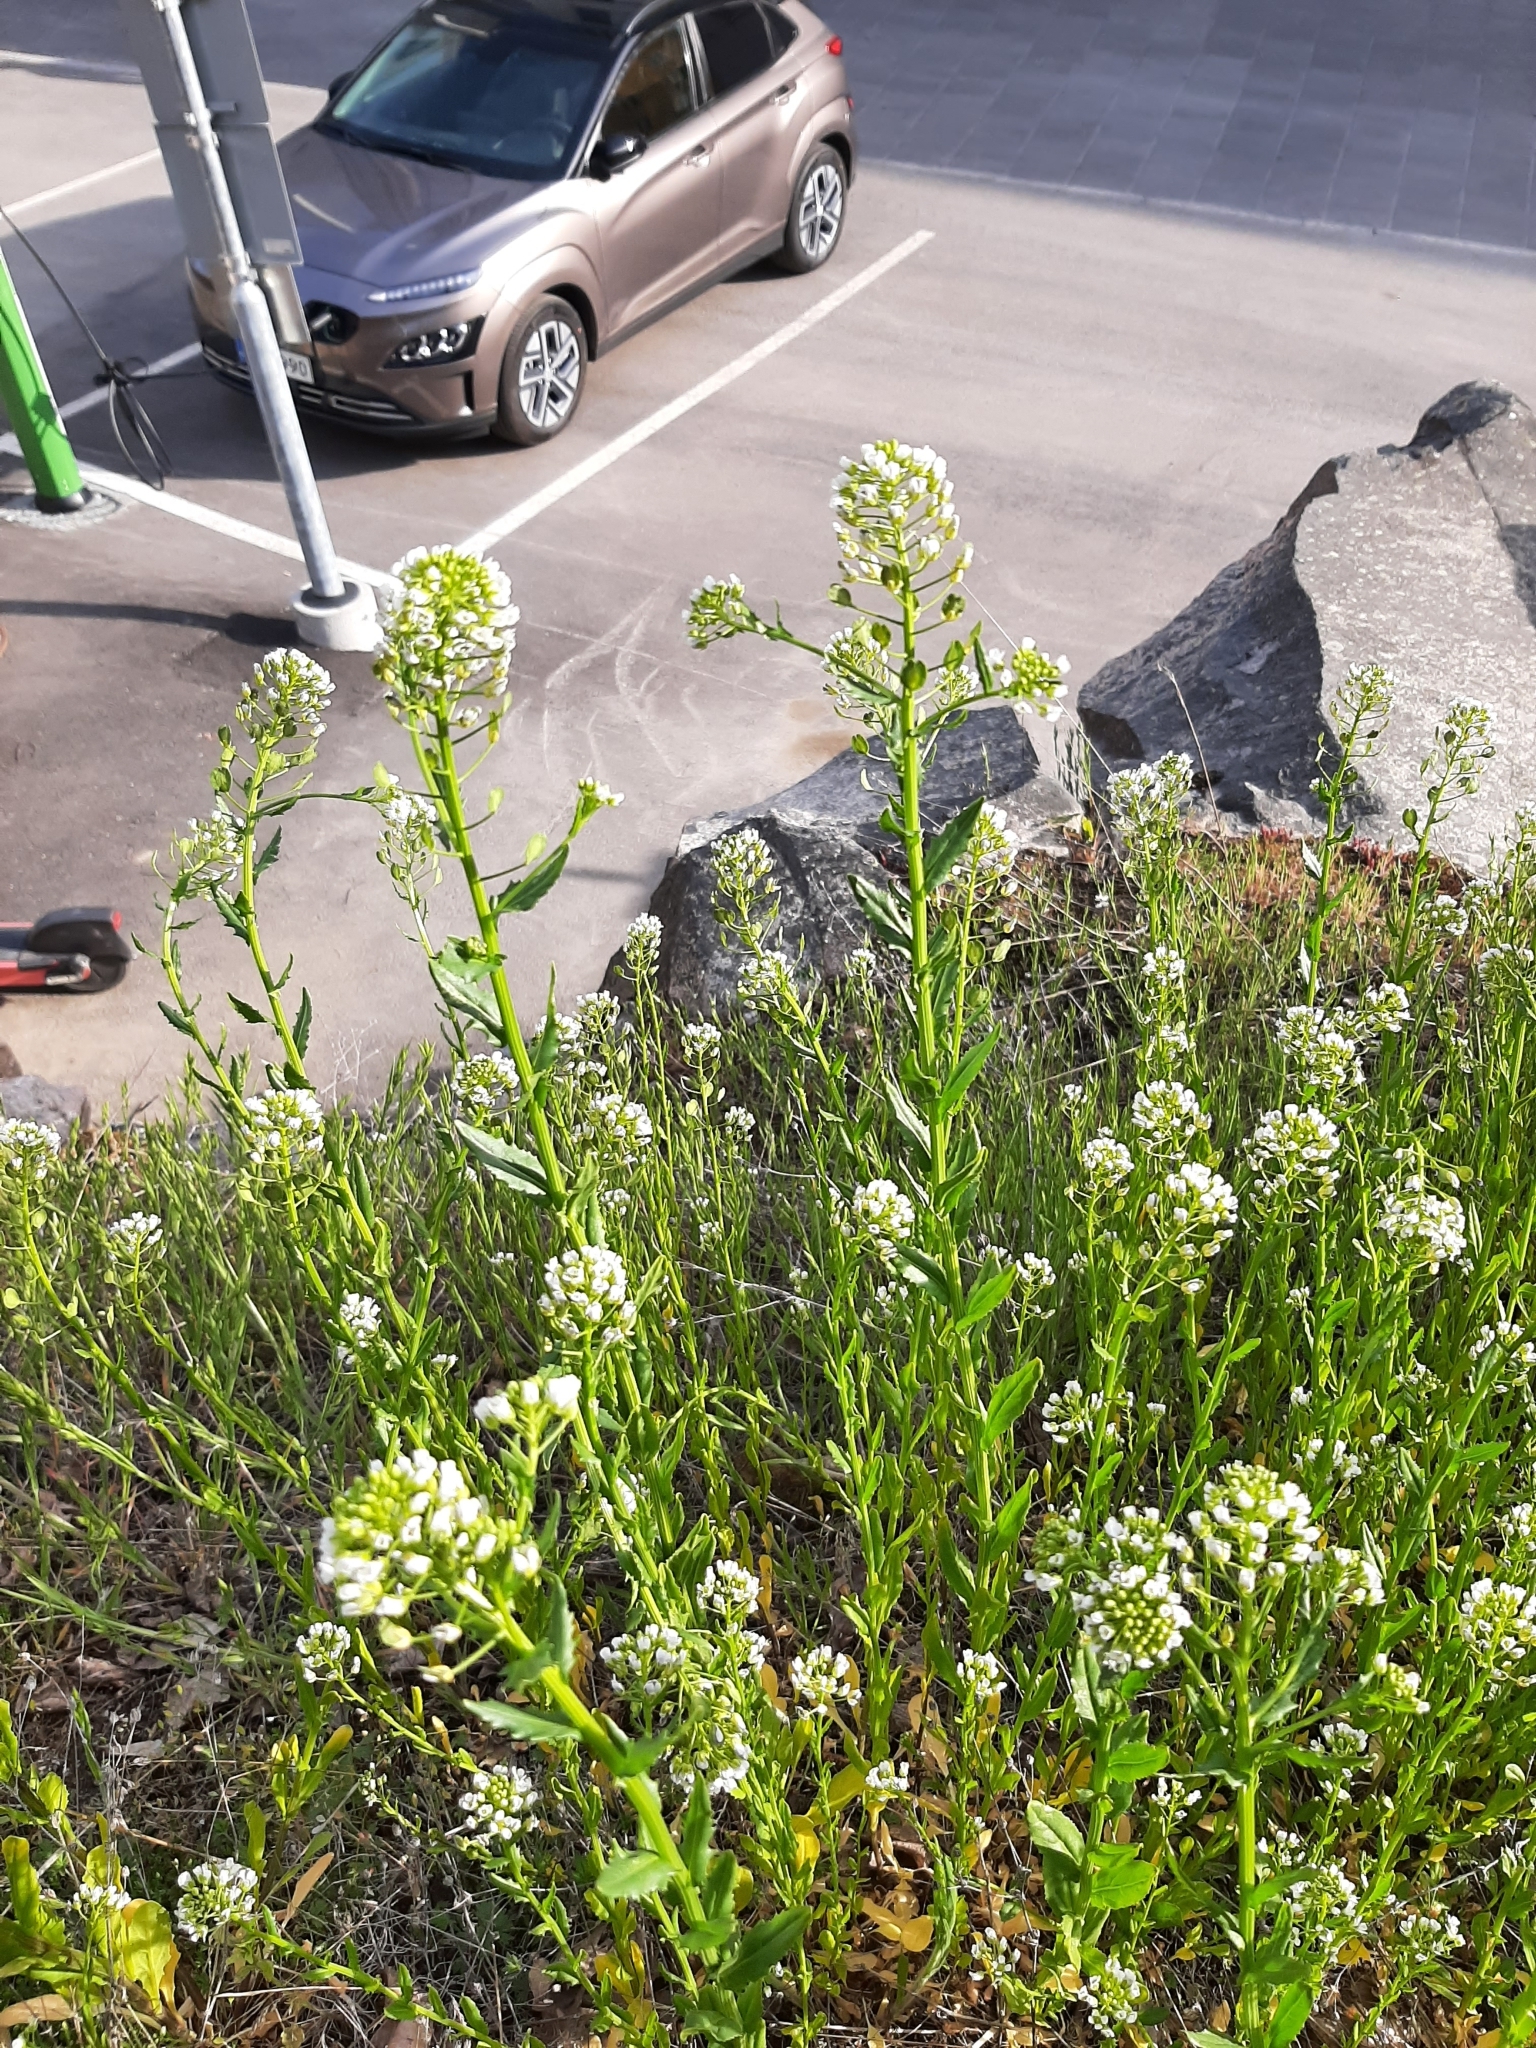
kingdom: Plantae
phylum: Tracheophyta
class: Magnoliopsida
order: Brassicales
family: Brassicaceae
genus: Thlaspi
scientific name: Thlaspi arvense
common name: Field pennycress
